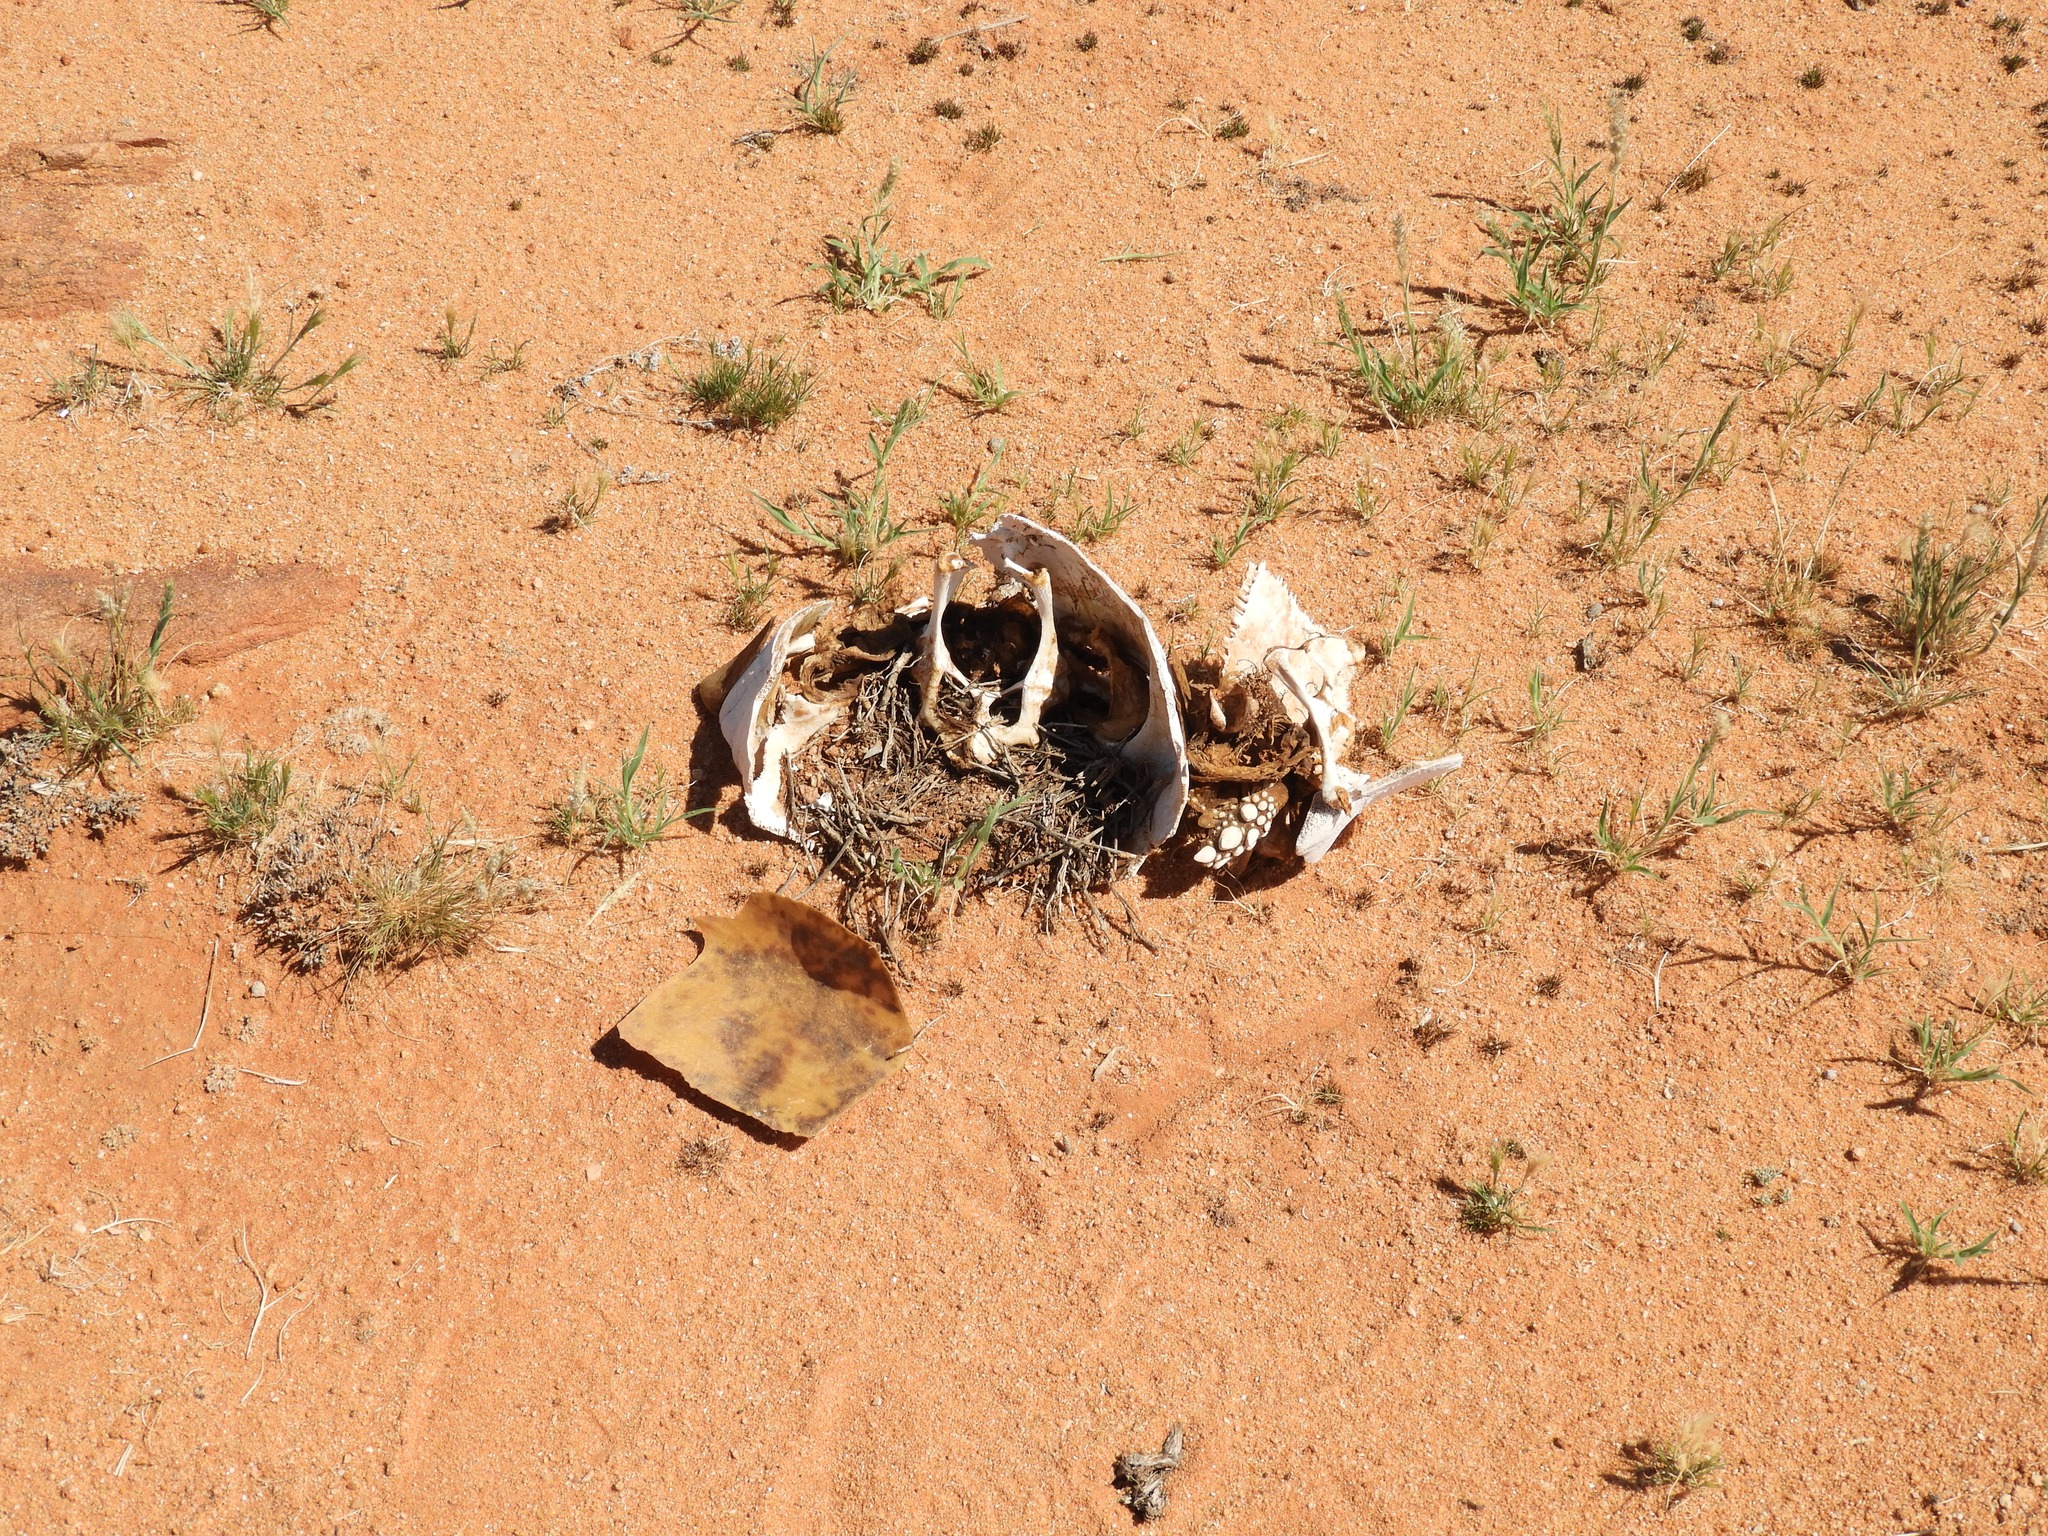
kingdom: Animalia
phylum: Chordata
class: Testudines
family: Testudinidae
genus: Stigmochelys
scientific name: Stigmochelys pardalis
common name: Leopard tortoise
